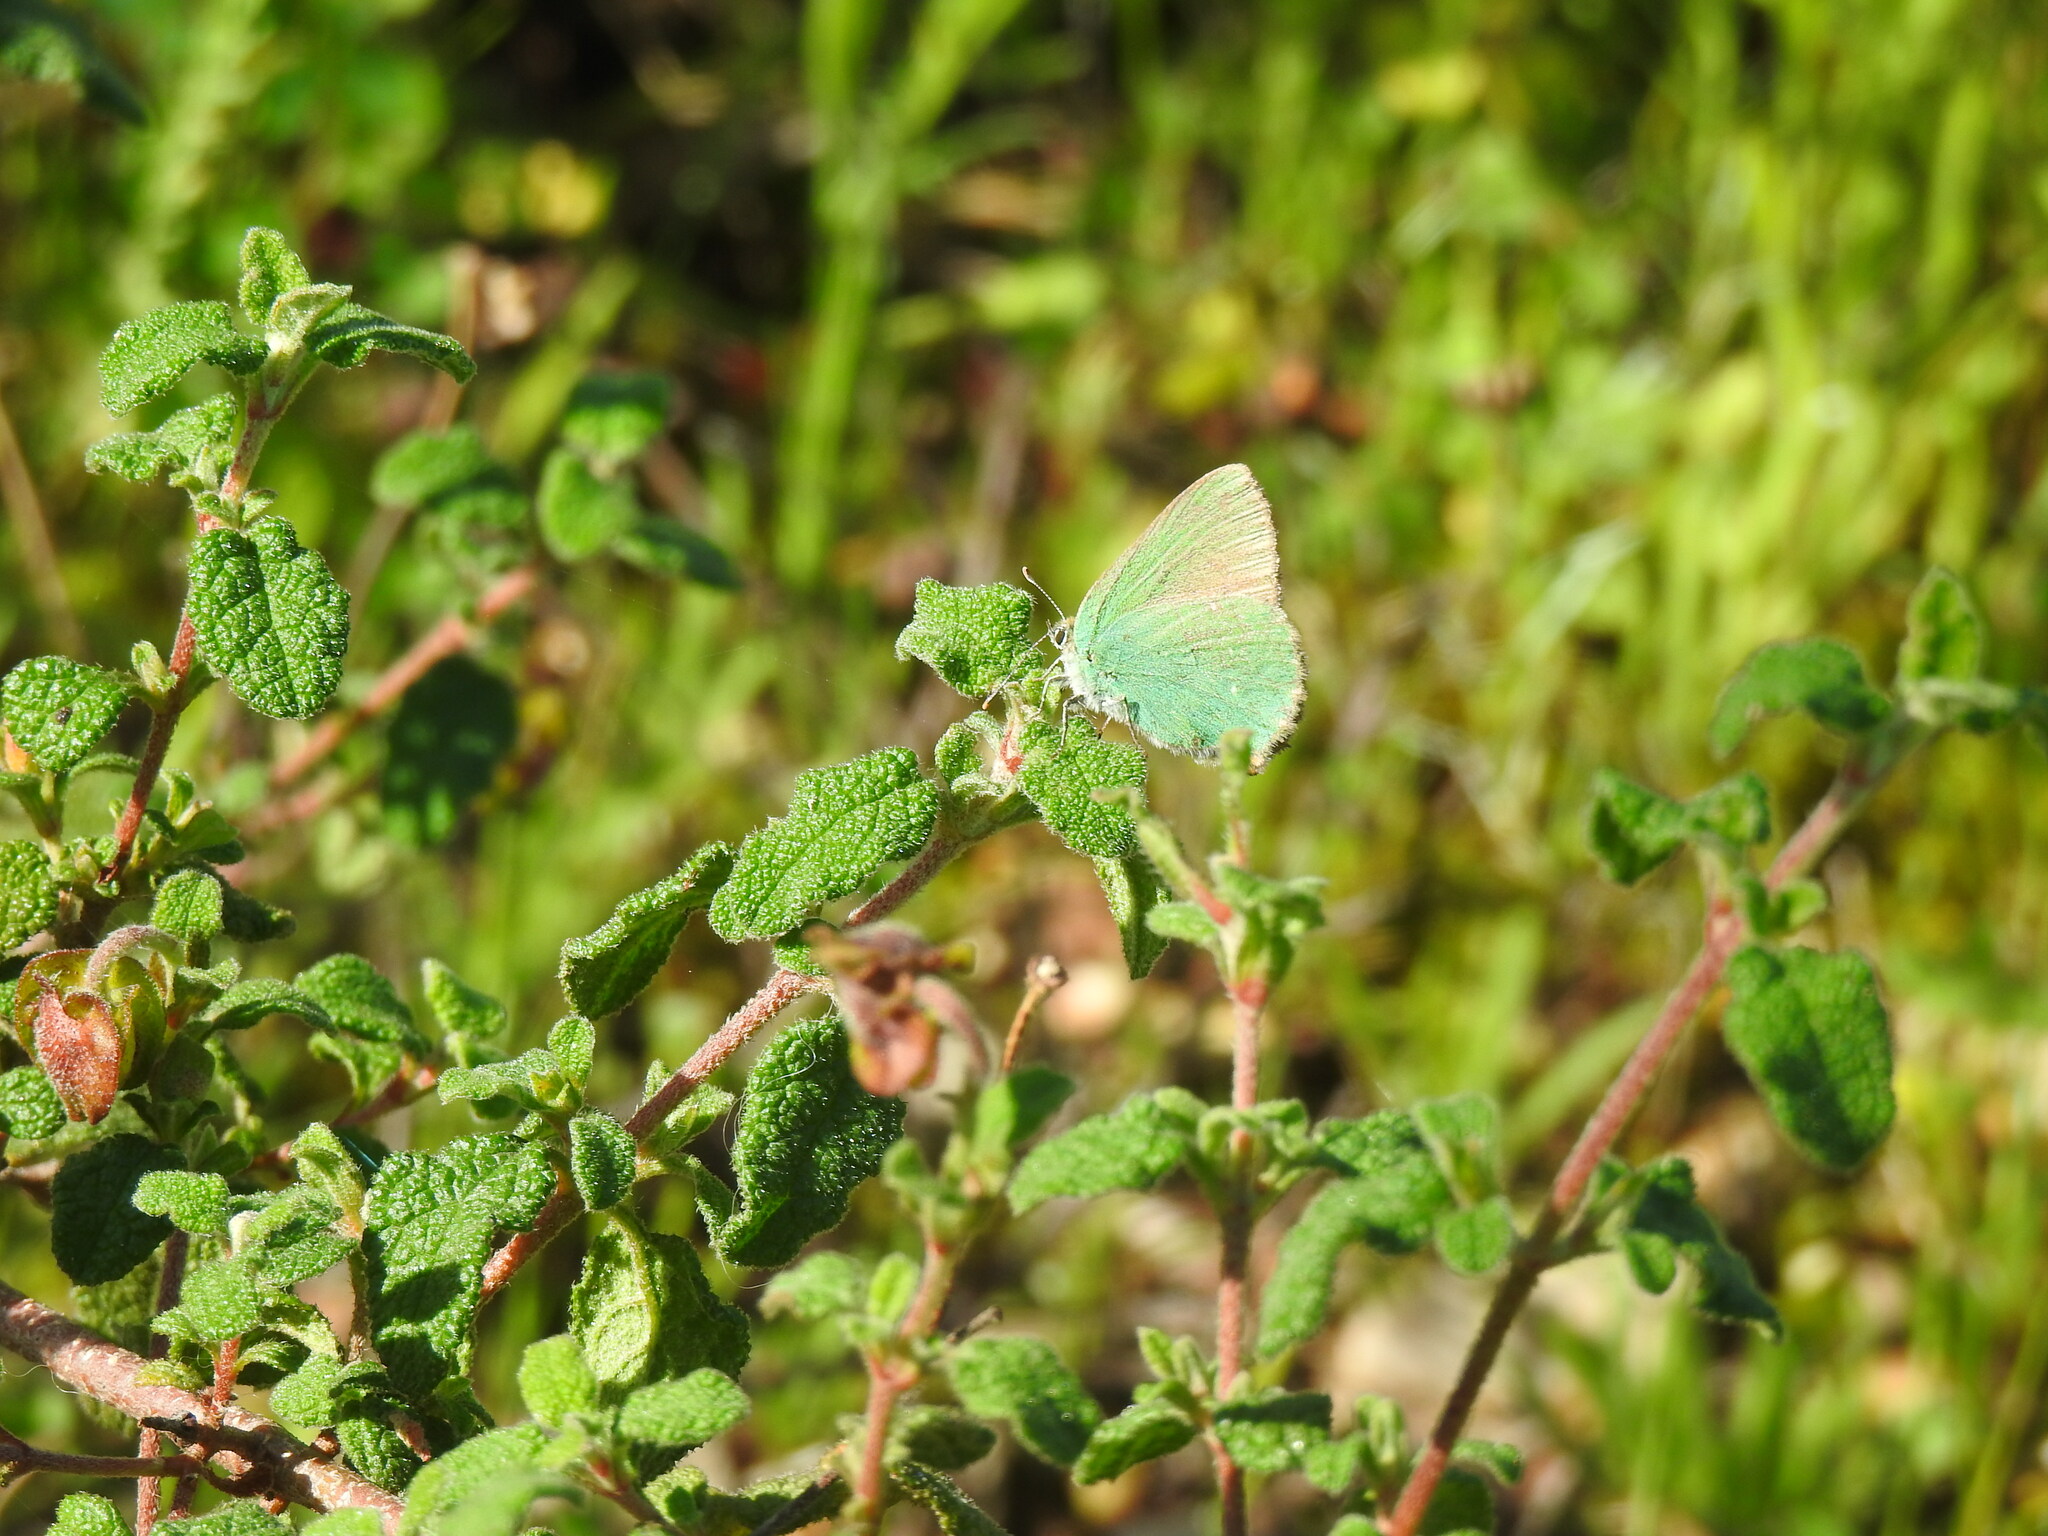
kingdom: Animalia
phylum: Arthropoda
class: Insecta
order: Lepidoptera
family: Lycaenidae
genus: Callophrys
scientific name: Callophrys rubi
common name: Green hairstreak
